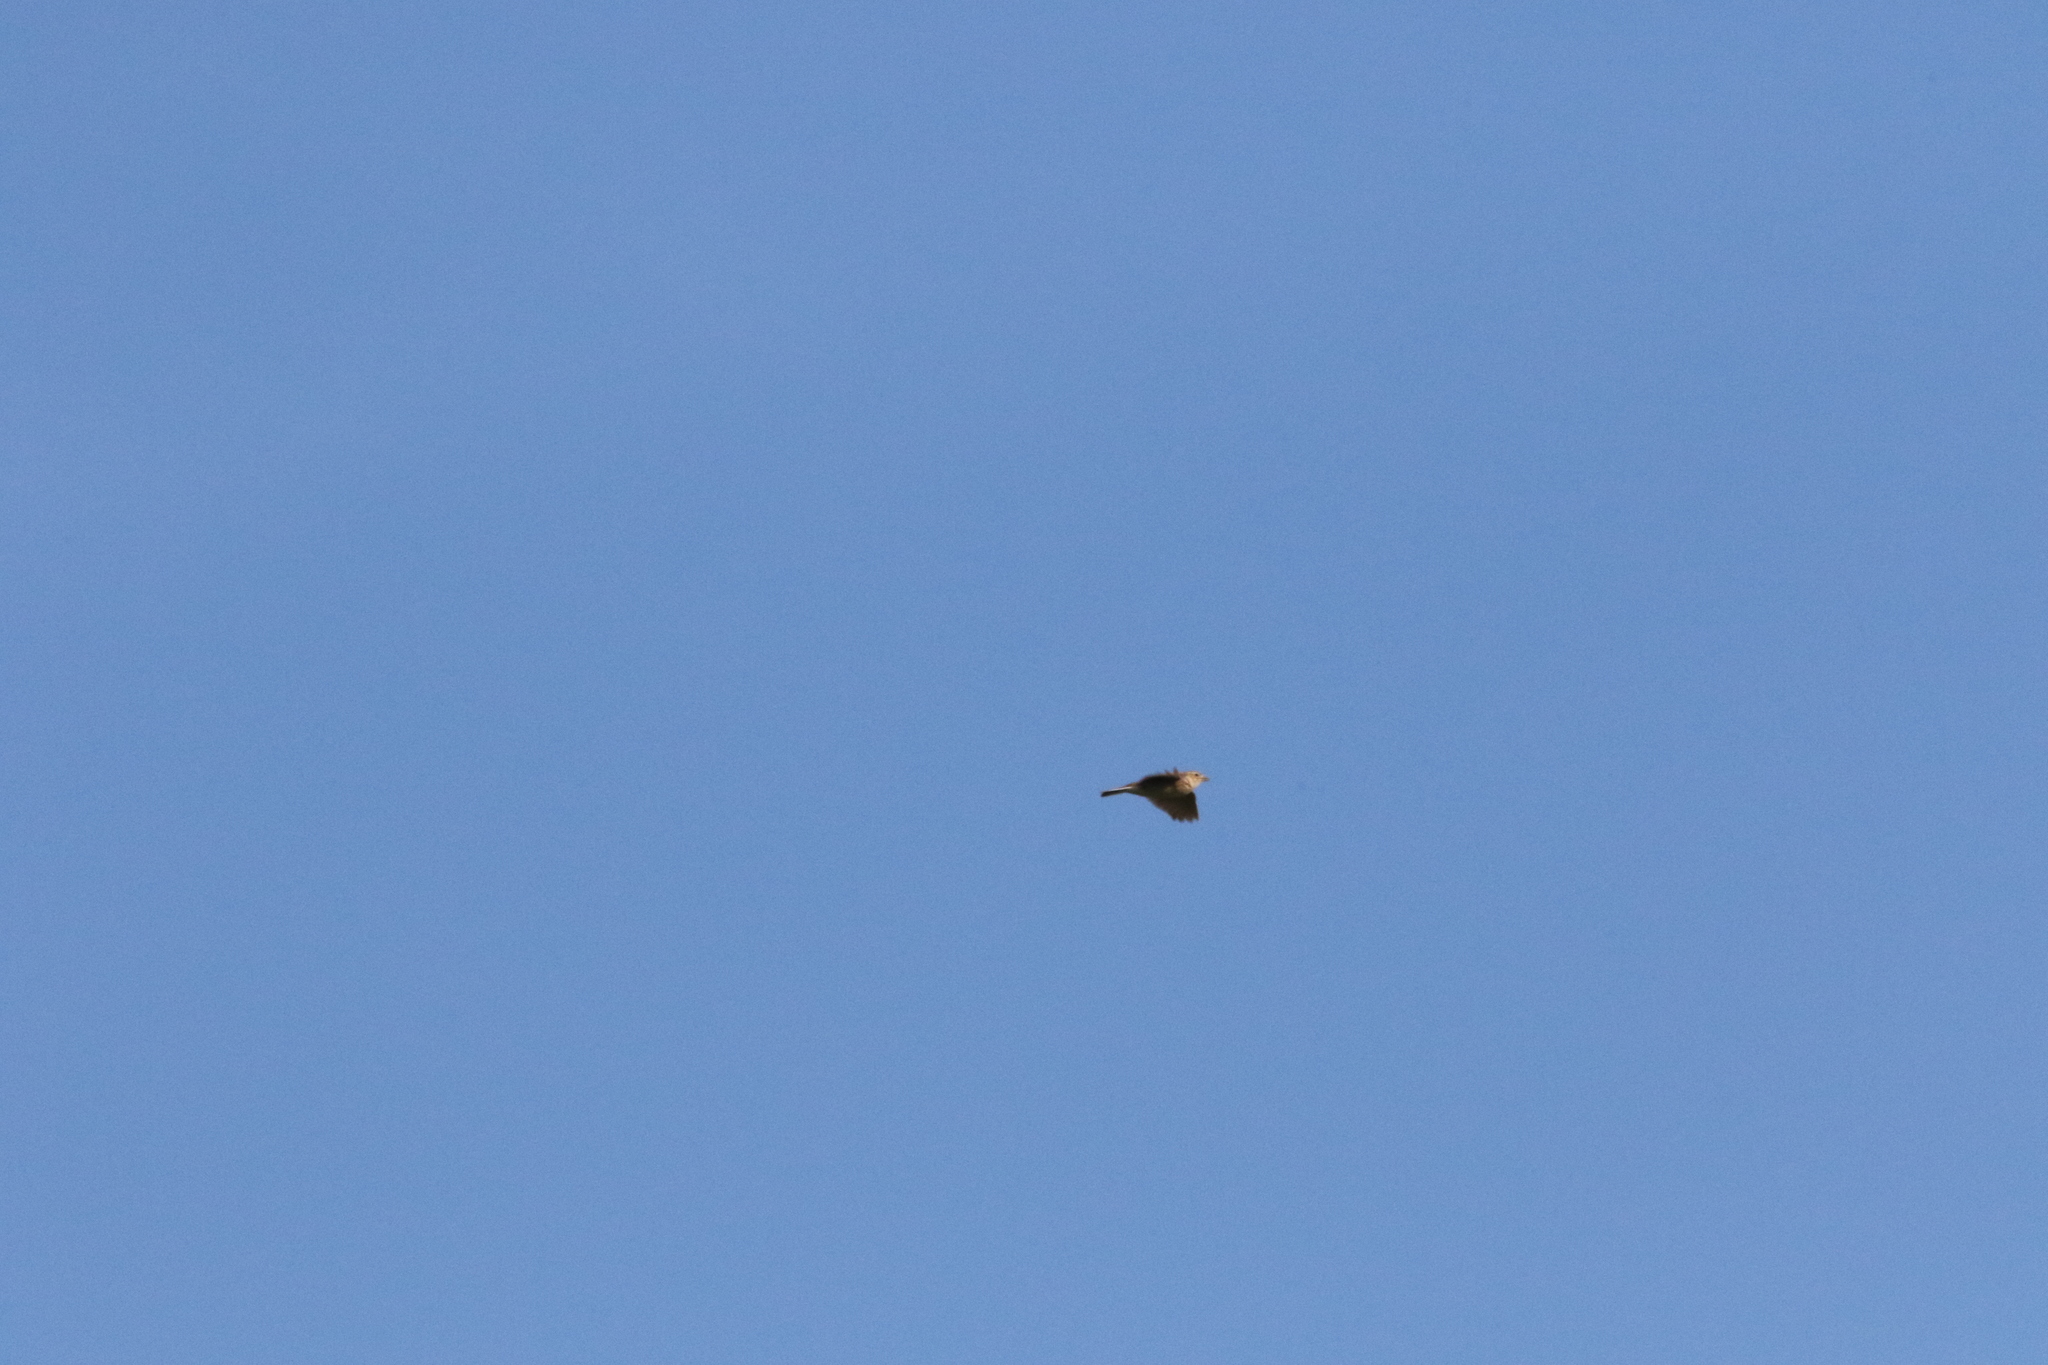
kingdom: Animalia
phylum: Chordata
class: Aves
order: Passeriformes
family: Alaudidae
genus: Alauda
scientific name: Alauda arvensis
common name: Eurasian skylark
